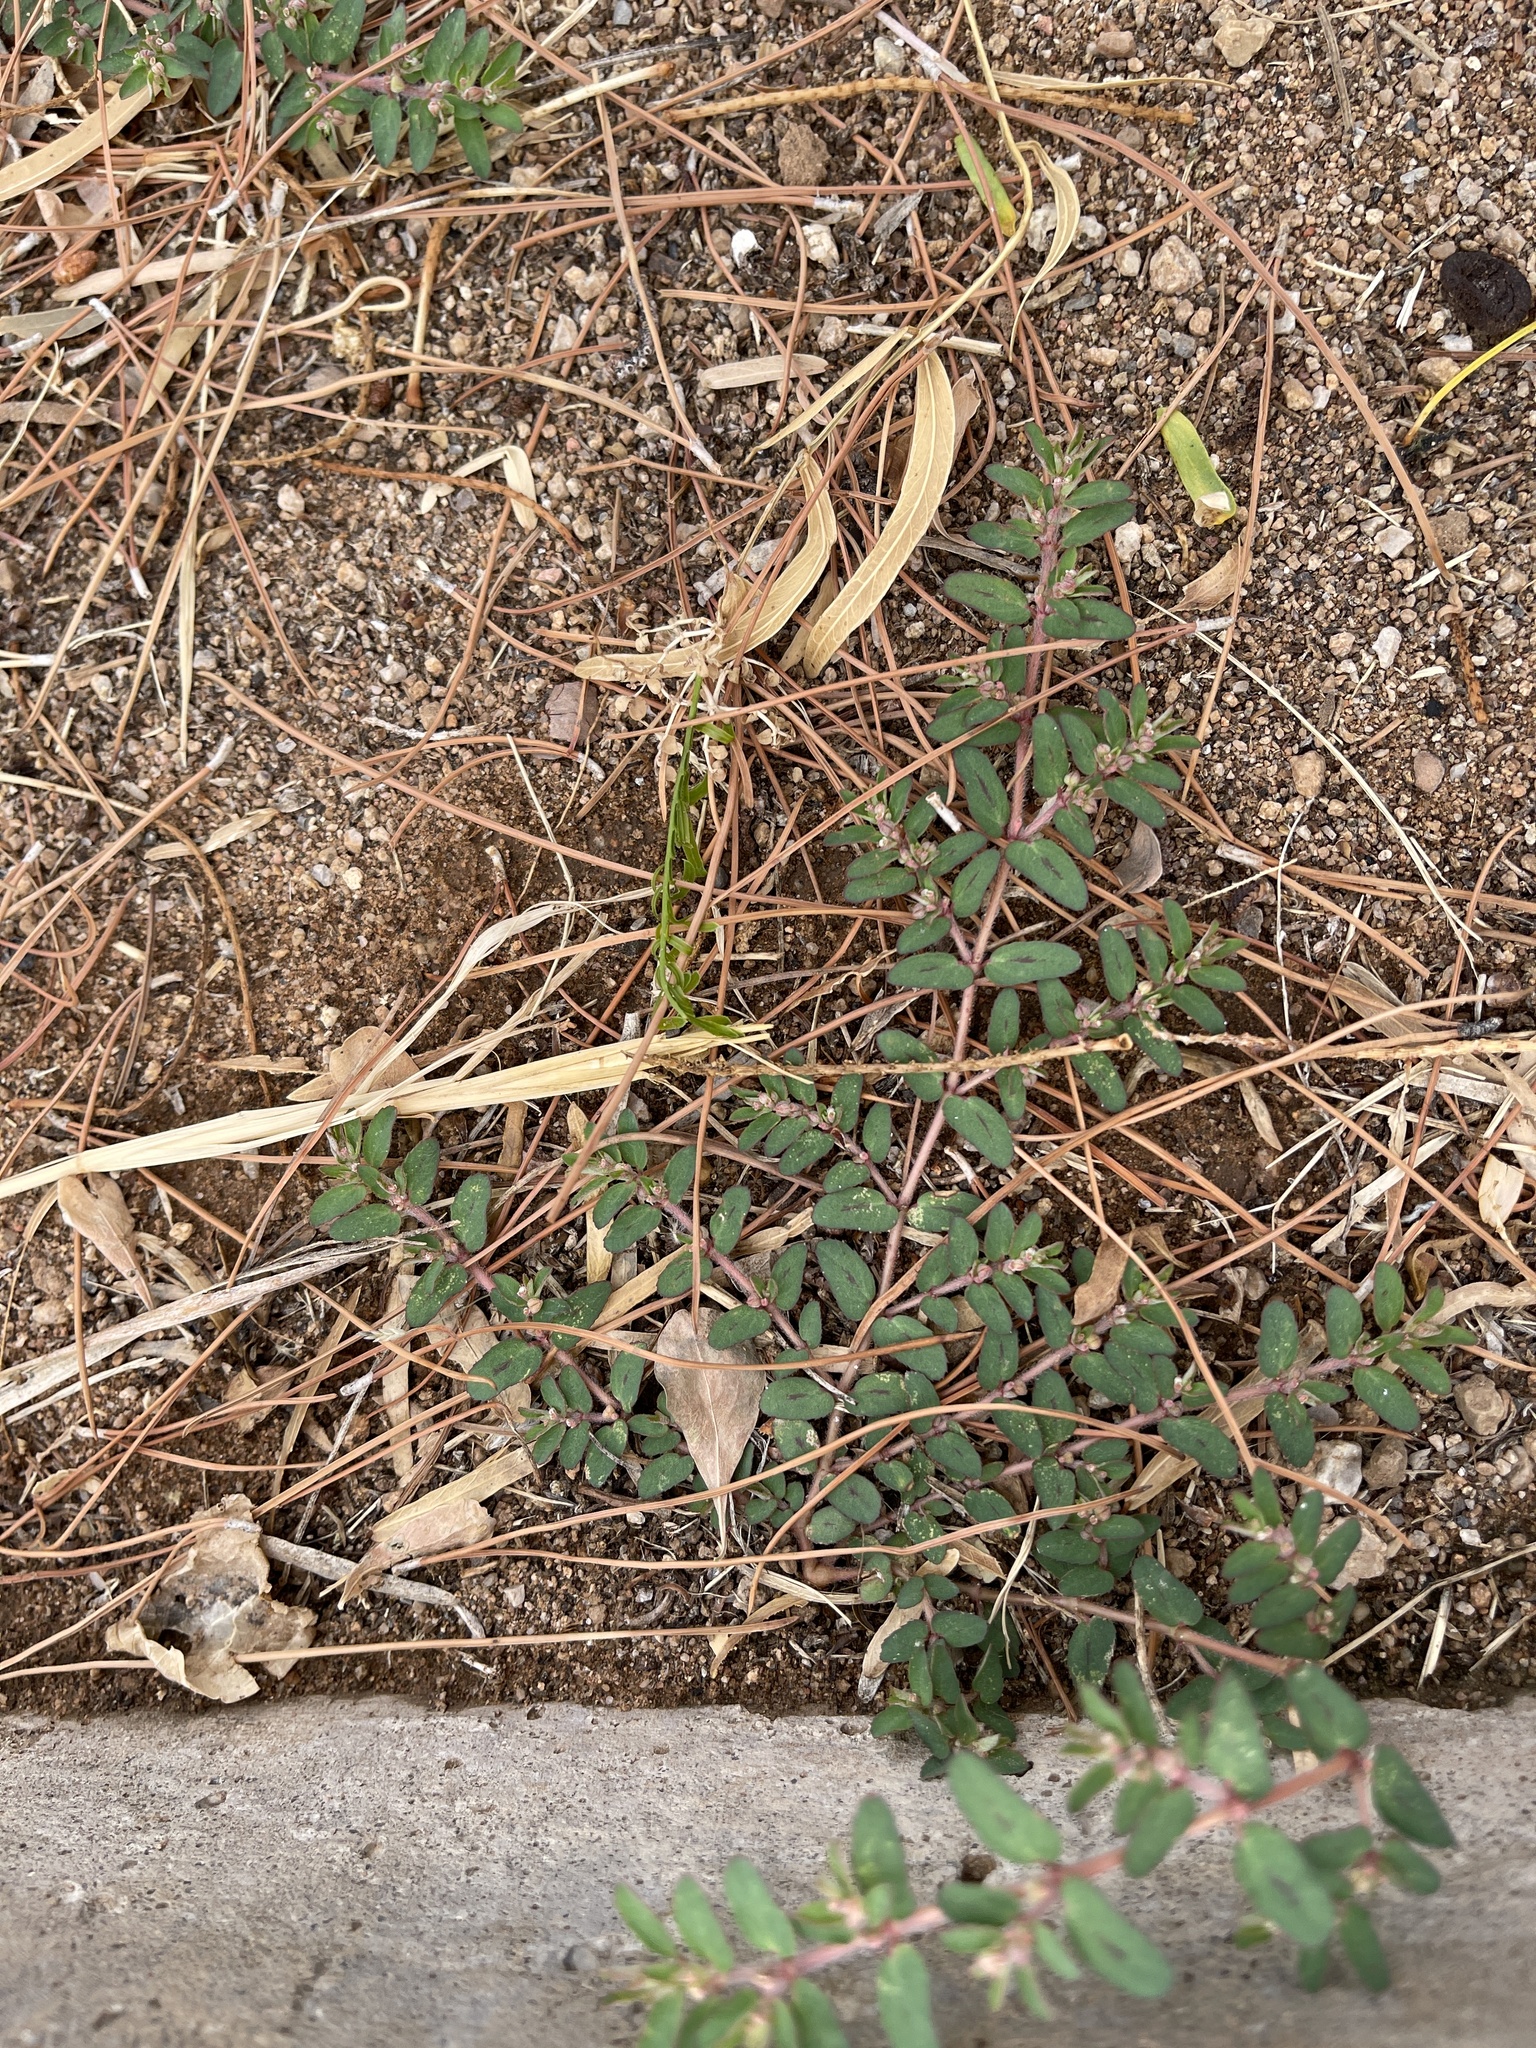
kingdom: Plantae
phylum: Tracheophyta
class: Magnoliopsida
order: Malpighiales
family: Euphorbiaceae
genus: Euphorbia
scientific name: Euphorbia maculata
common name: Spotted spurge
